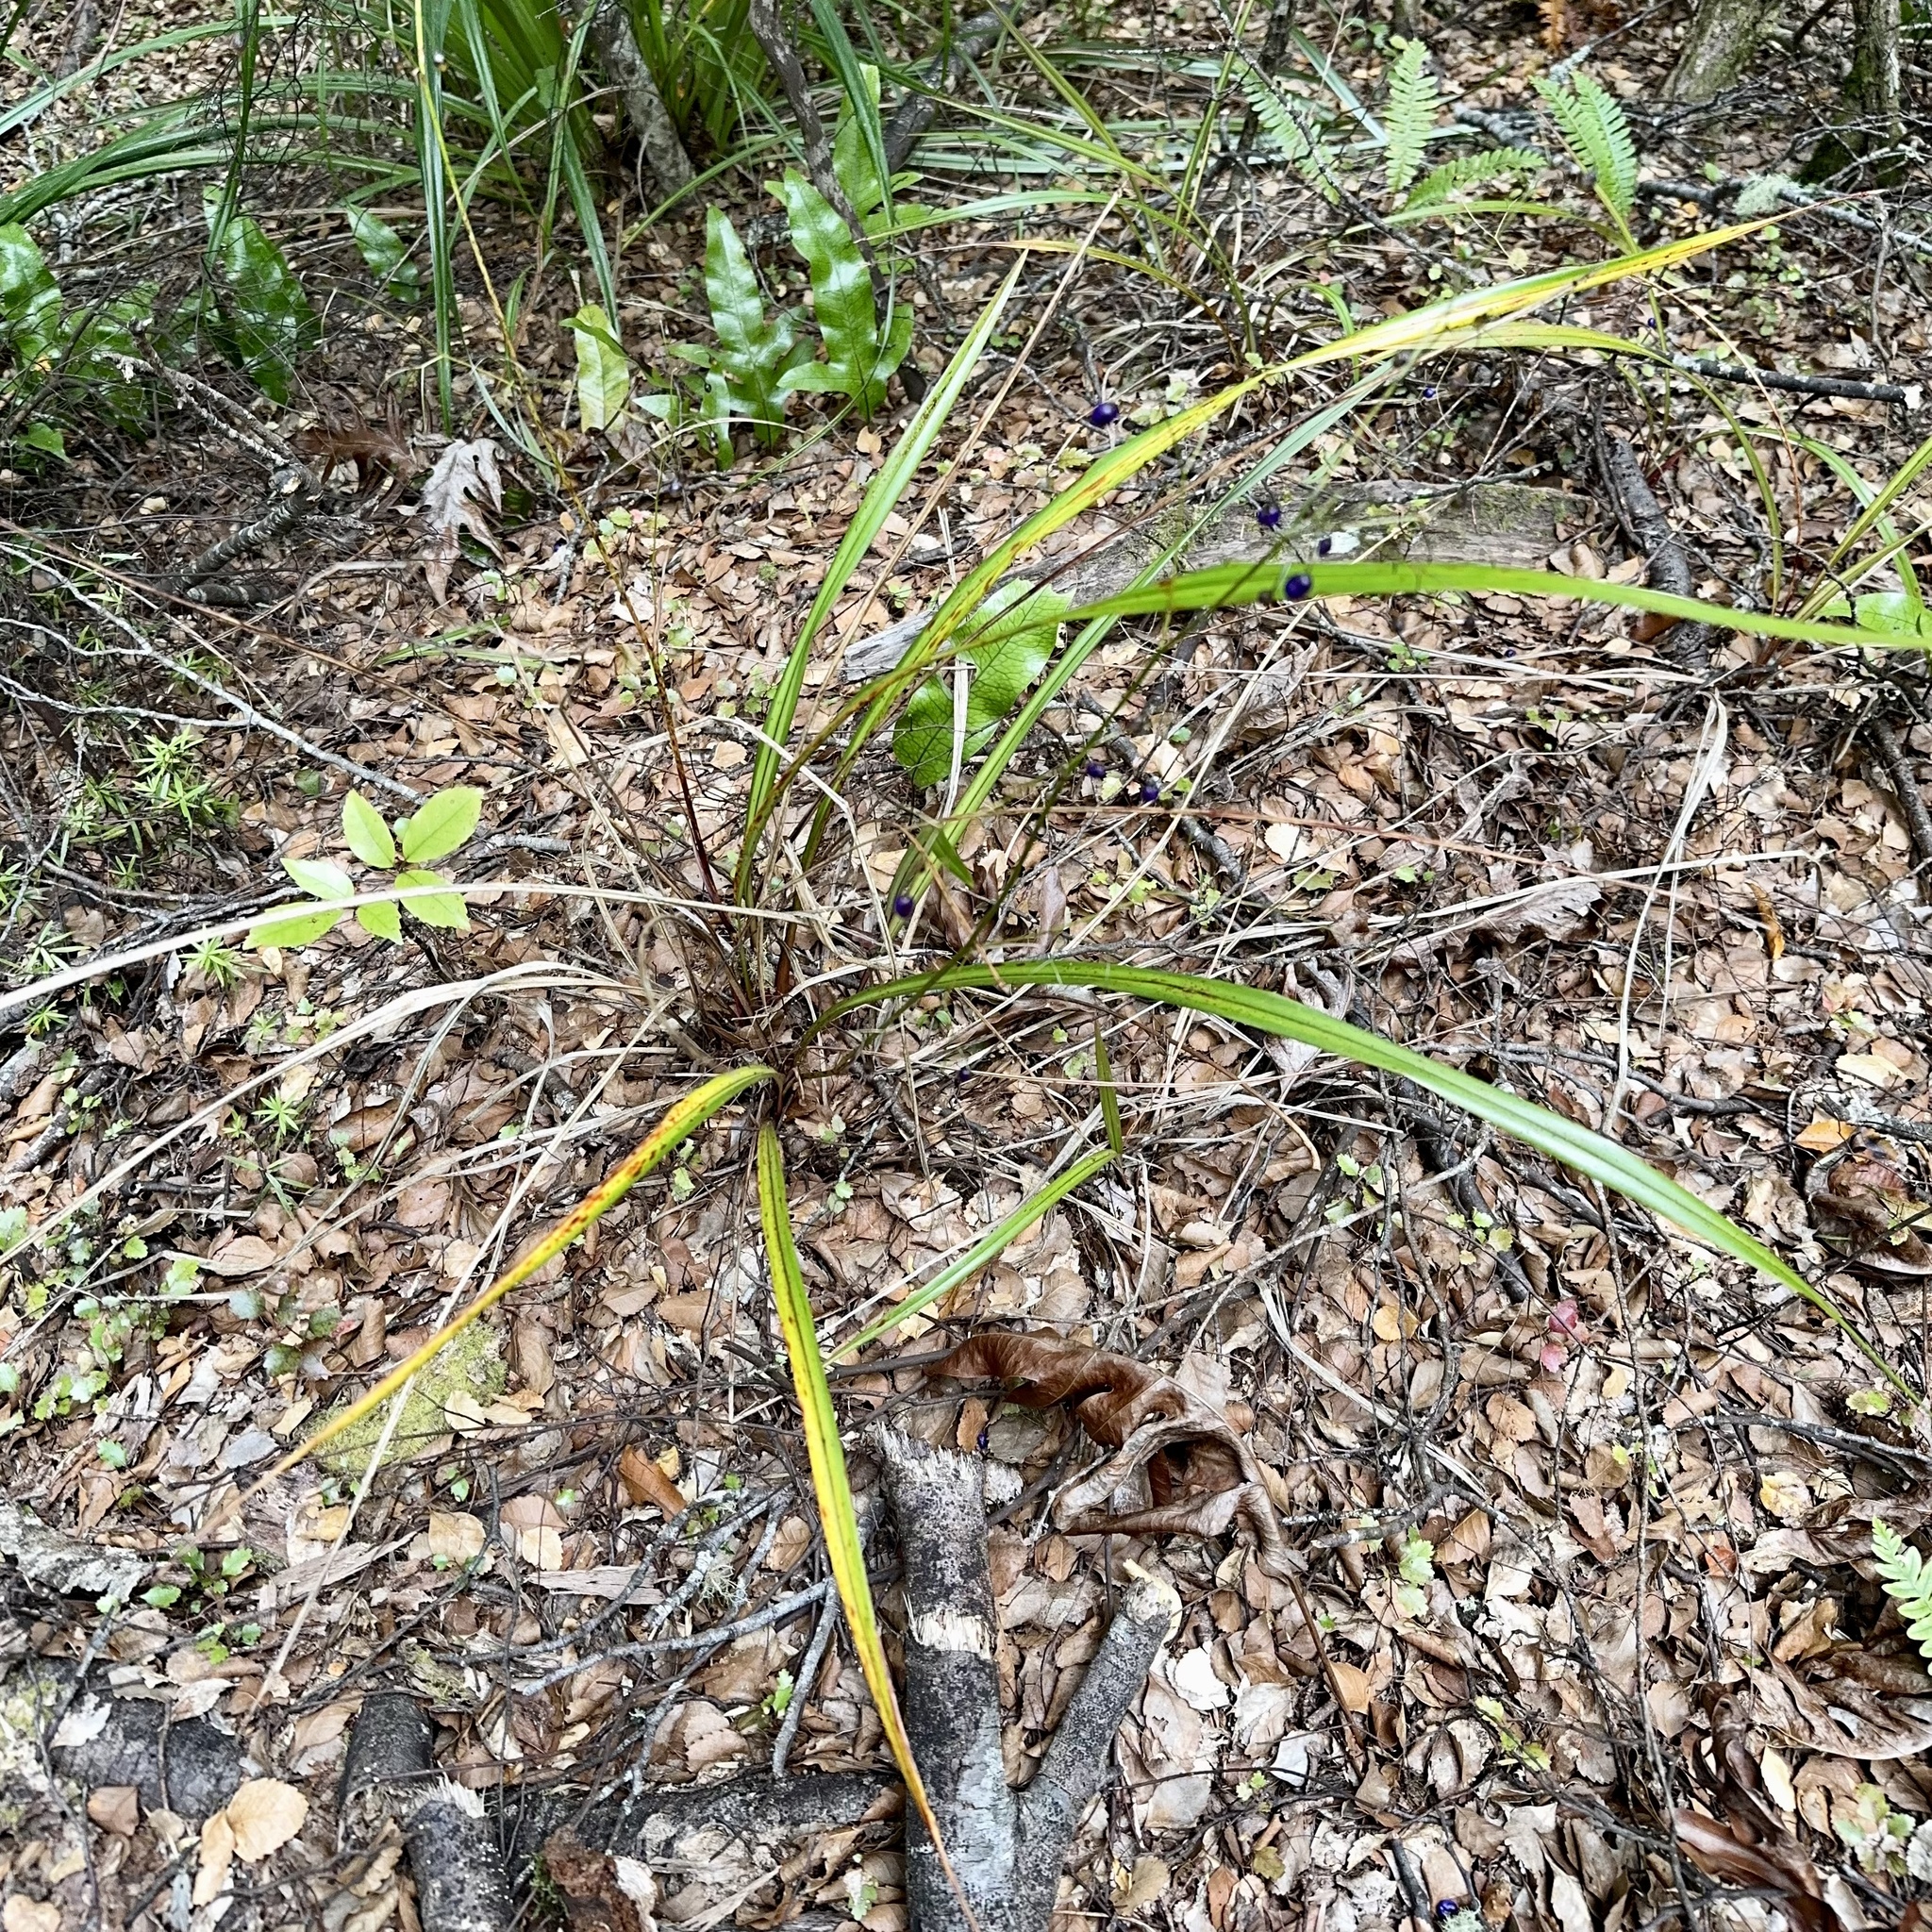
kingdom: Plantae
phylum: Tracheophyta
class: Liliopsida
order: Asparagales
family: Asphodelaceae
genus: Dianella
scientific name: Dianella nigra
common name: New zealand-blueberry
